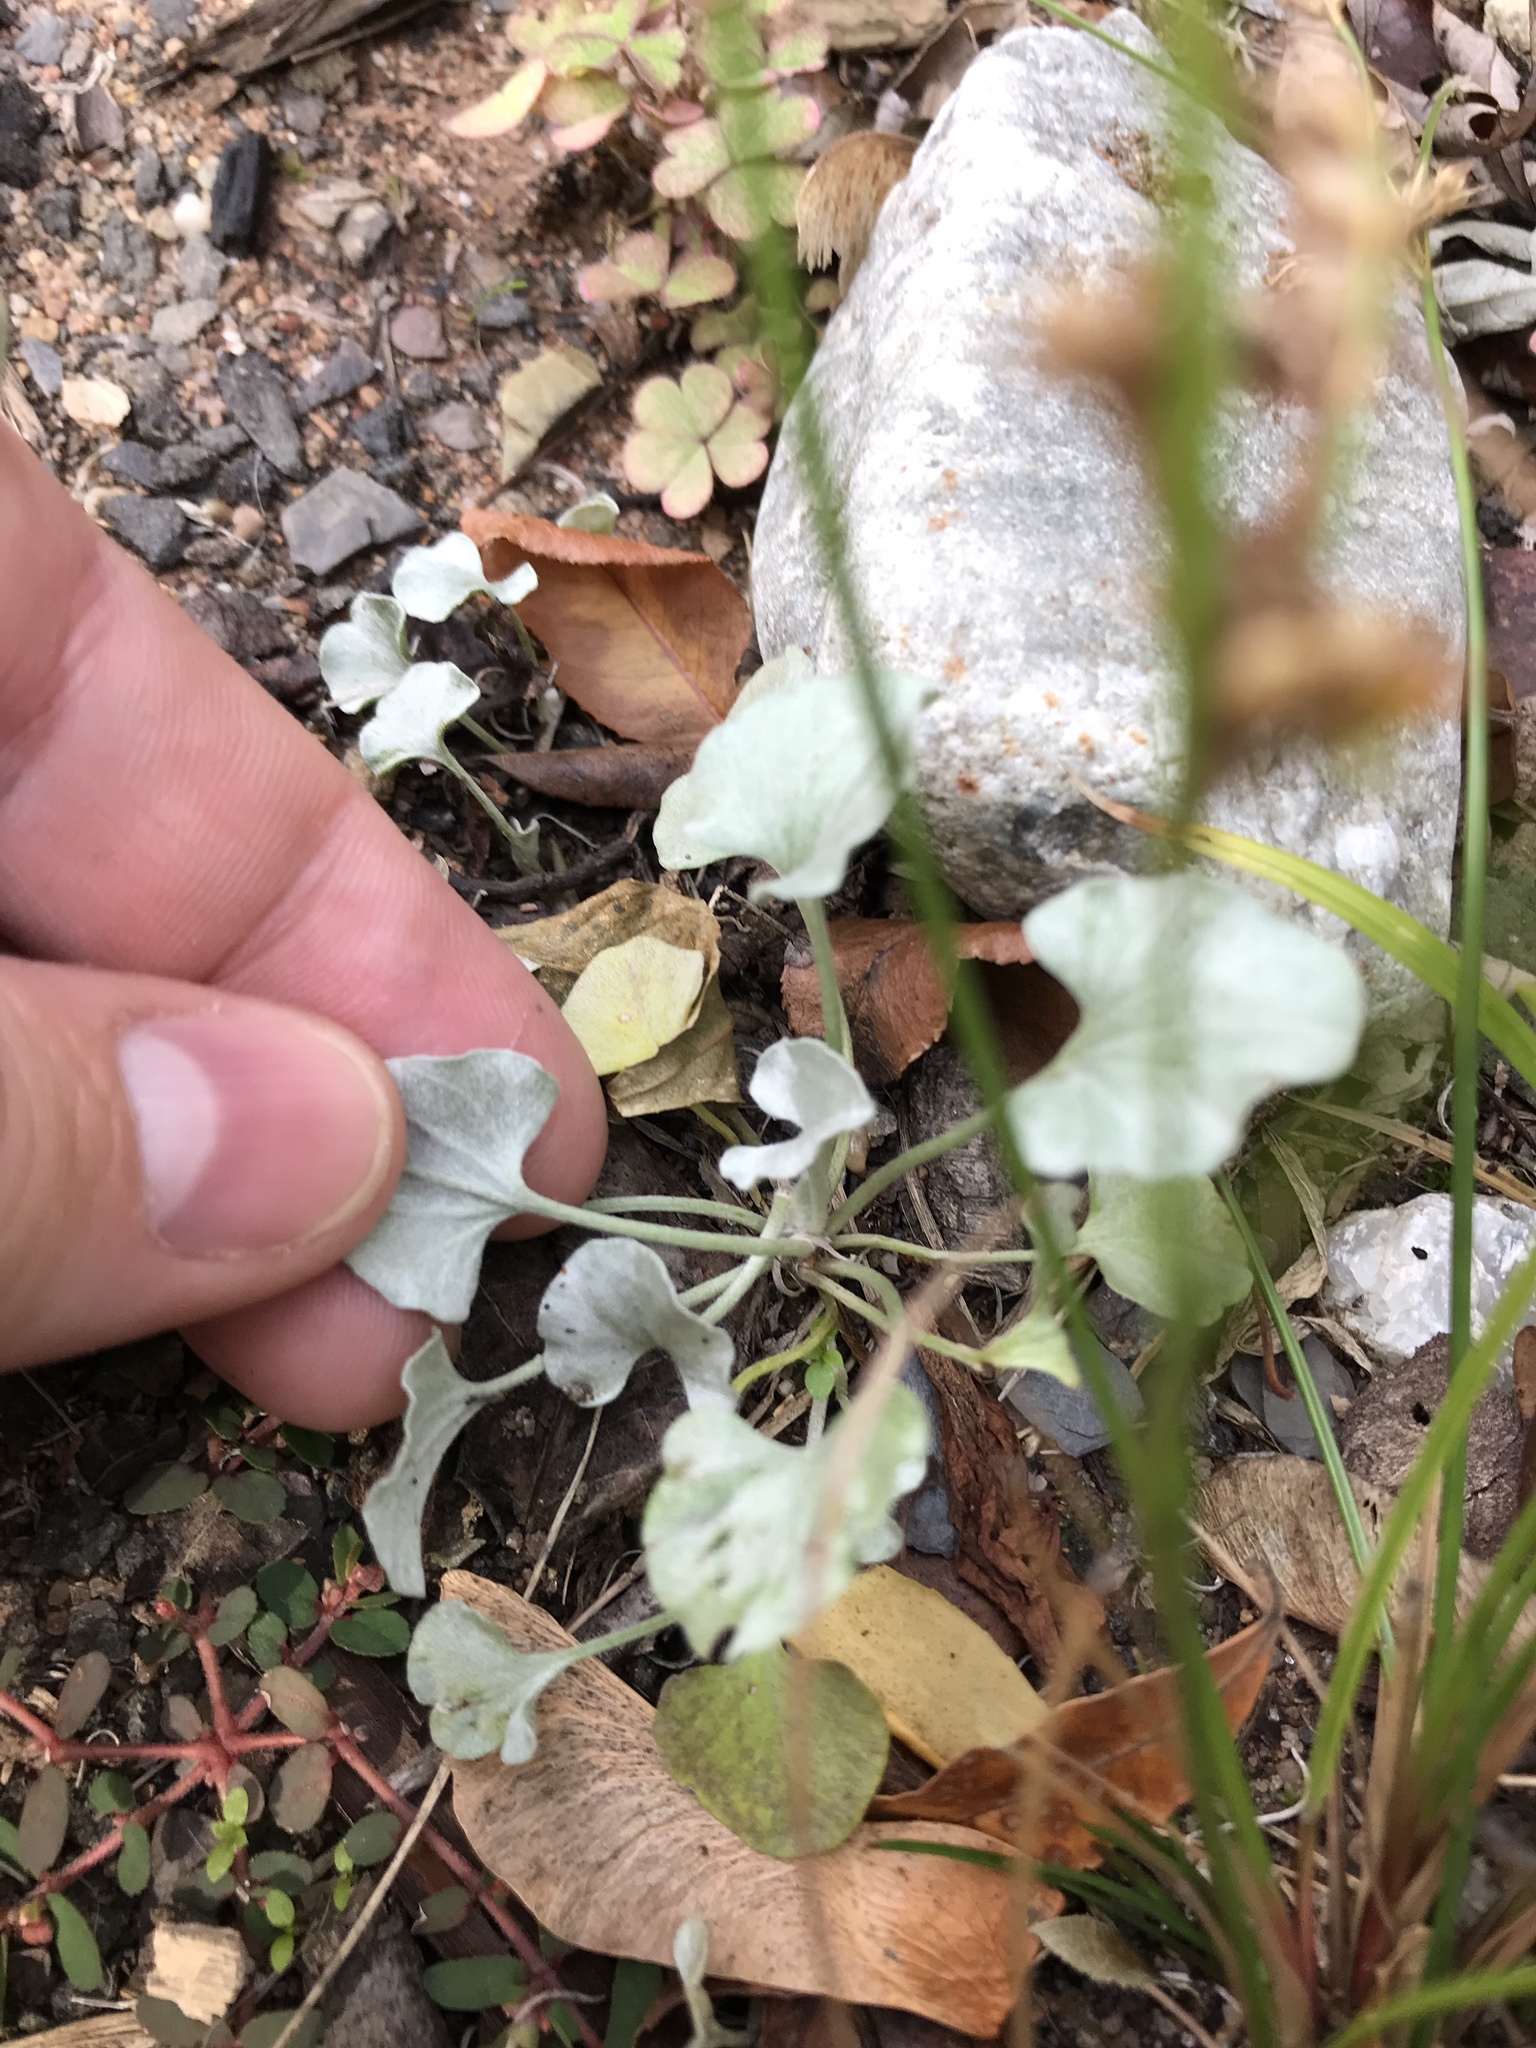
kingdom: Plantae
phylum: Tracheophyta
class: Magnoliopsida
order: Solanales
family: Convolvulaceae
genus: Dichondra
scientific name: Dichondra argentea
